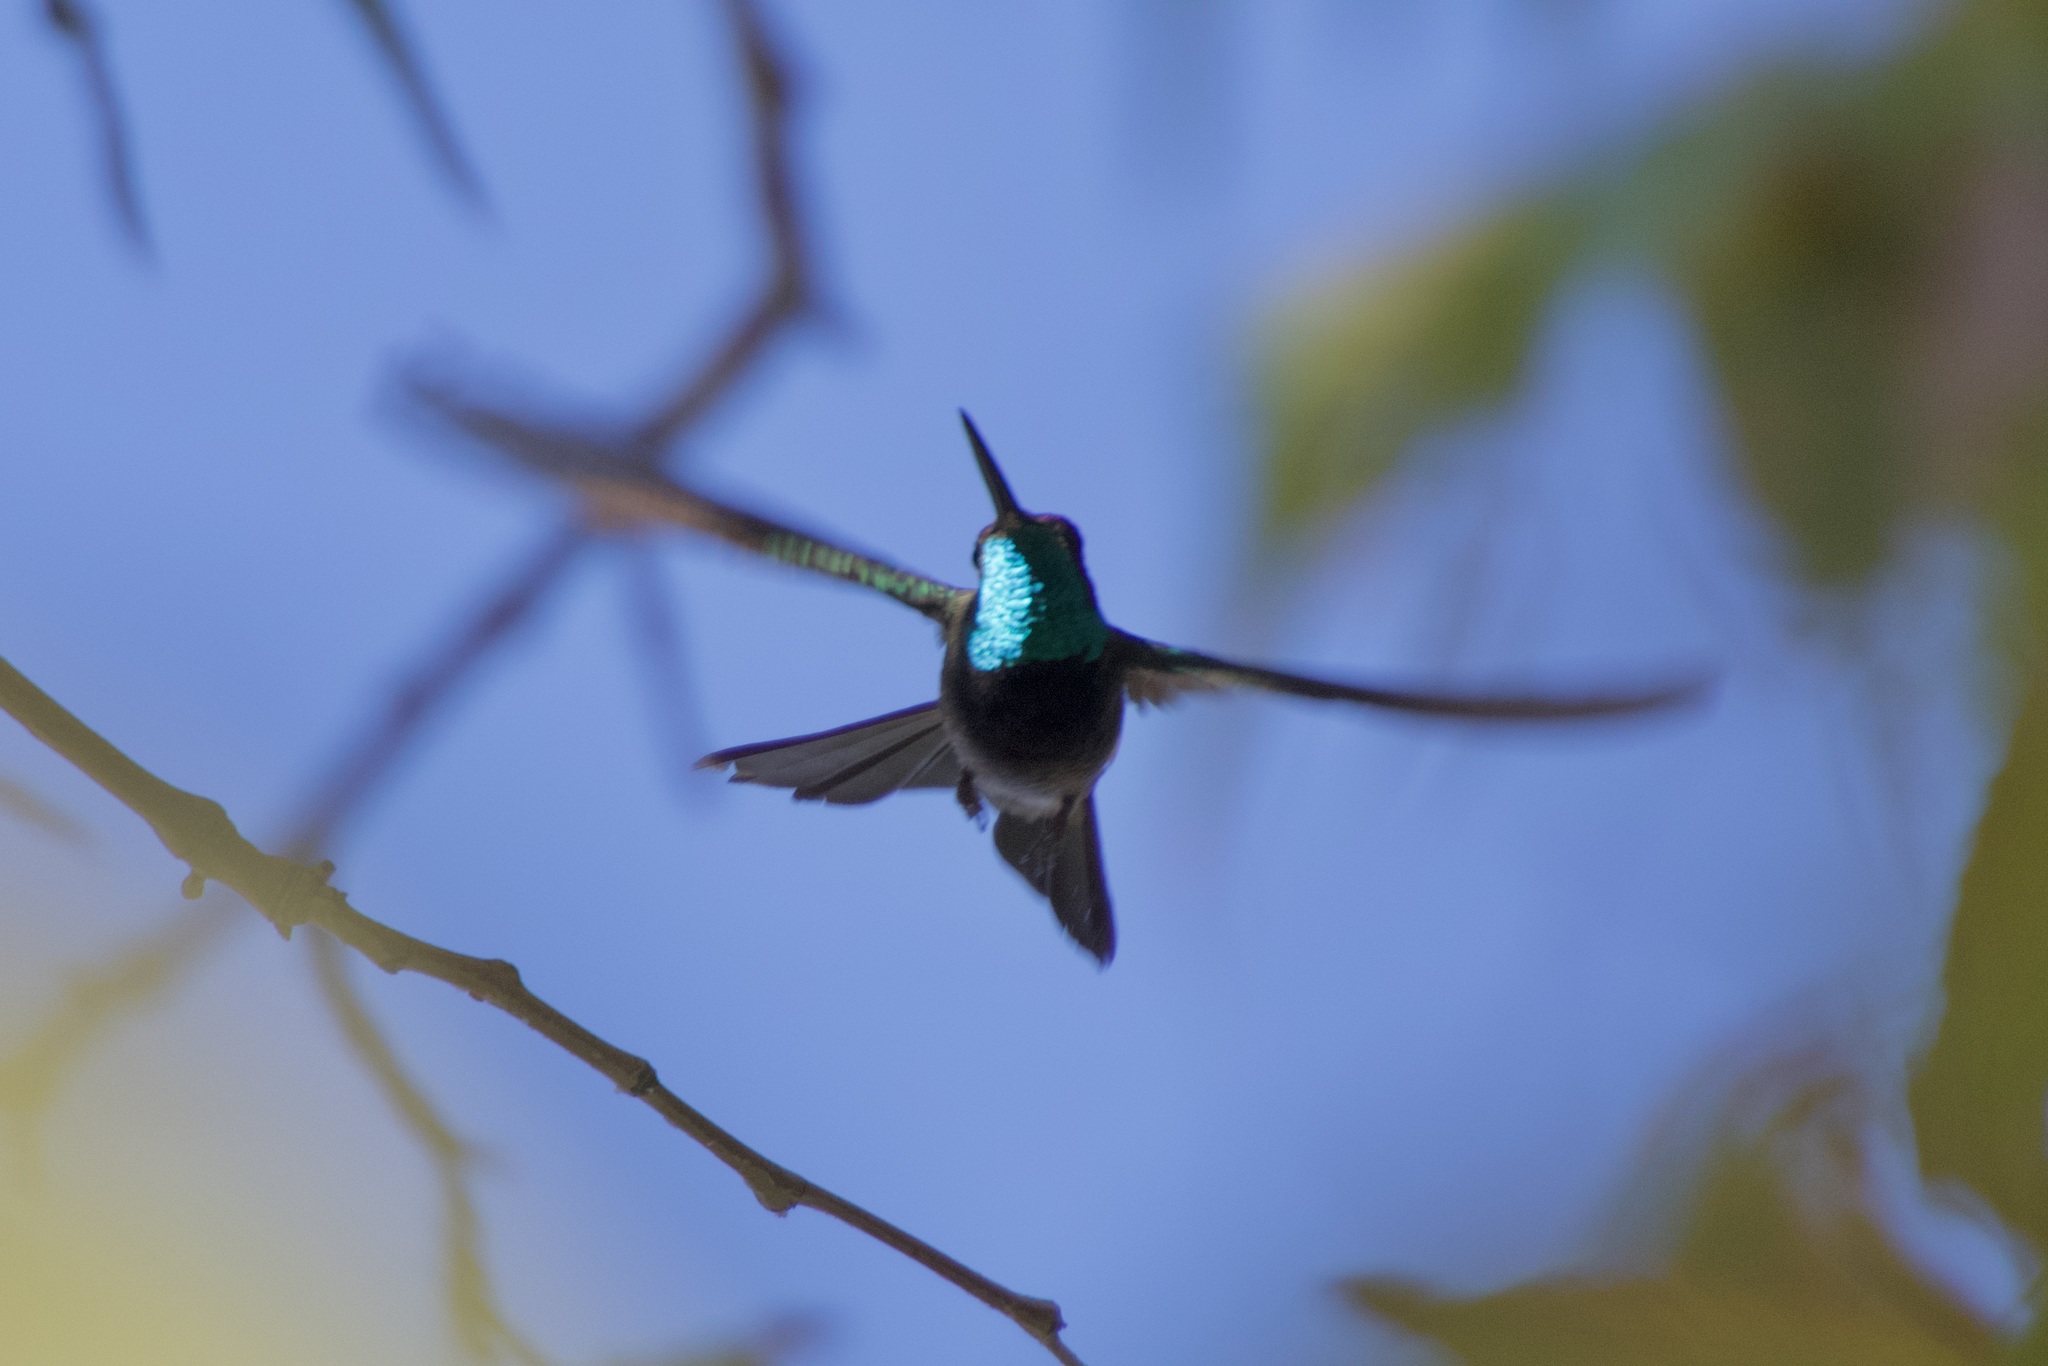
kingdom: Animalia
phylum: Chordata
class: Aves
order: Apodiformes
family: Trochilidae
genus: Eugenes
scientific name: Eugenes fulgens
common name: Magnificent hummingbird
